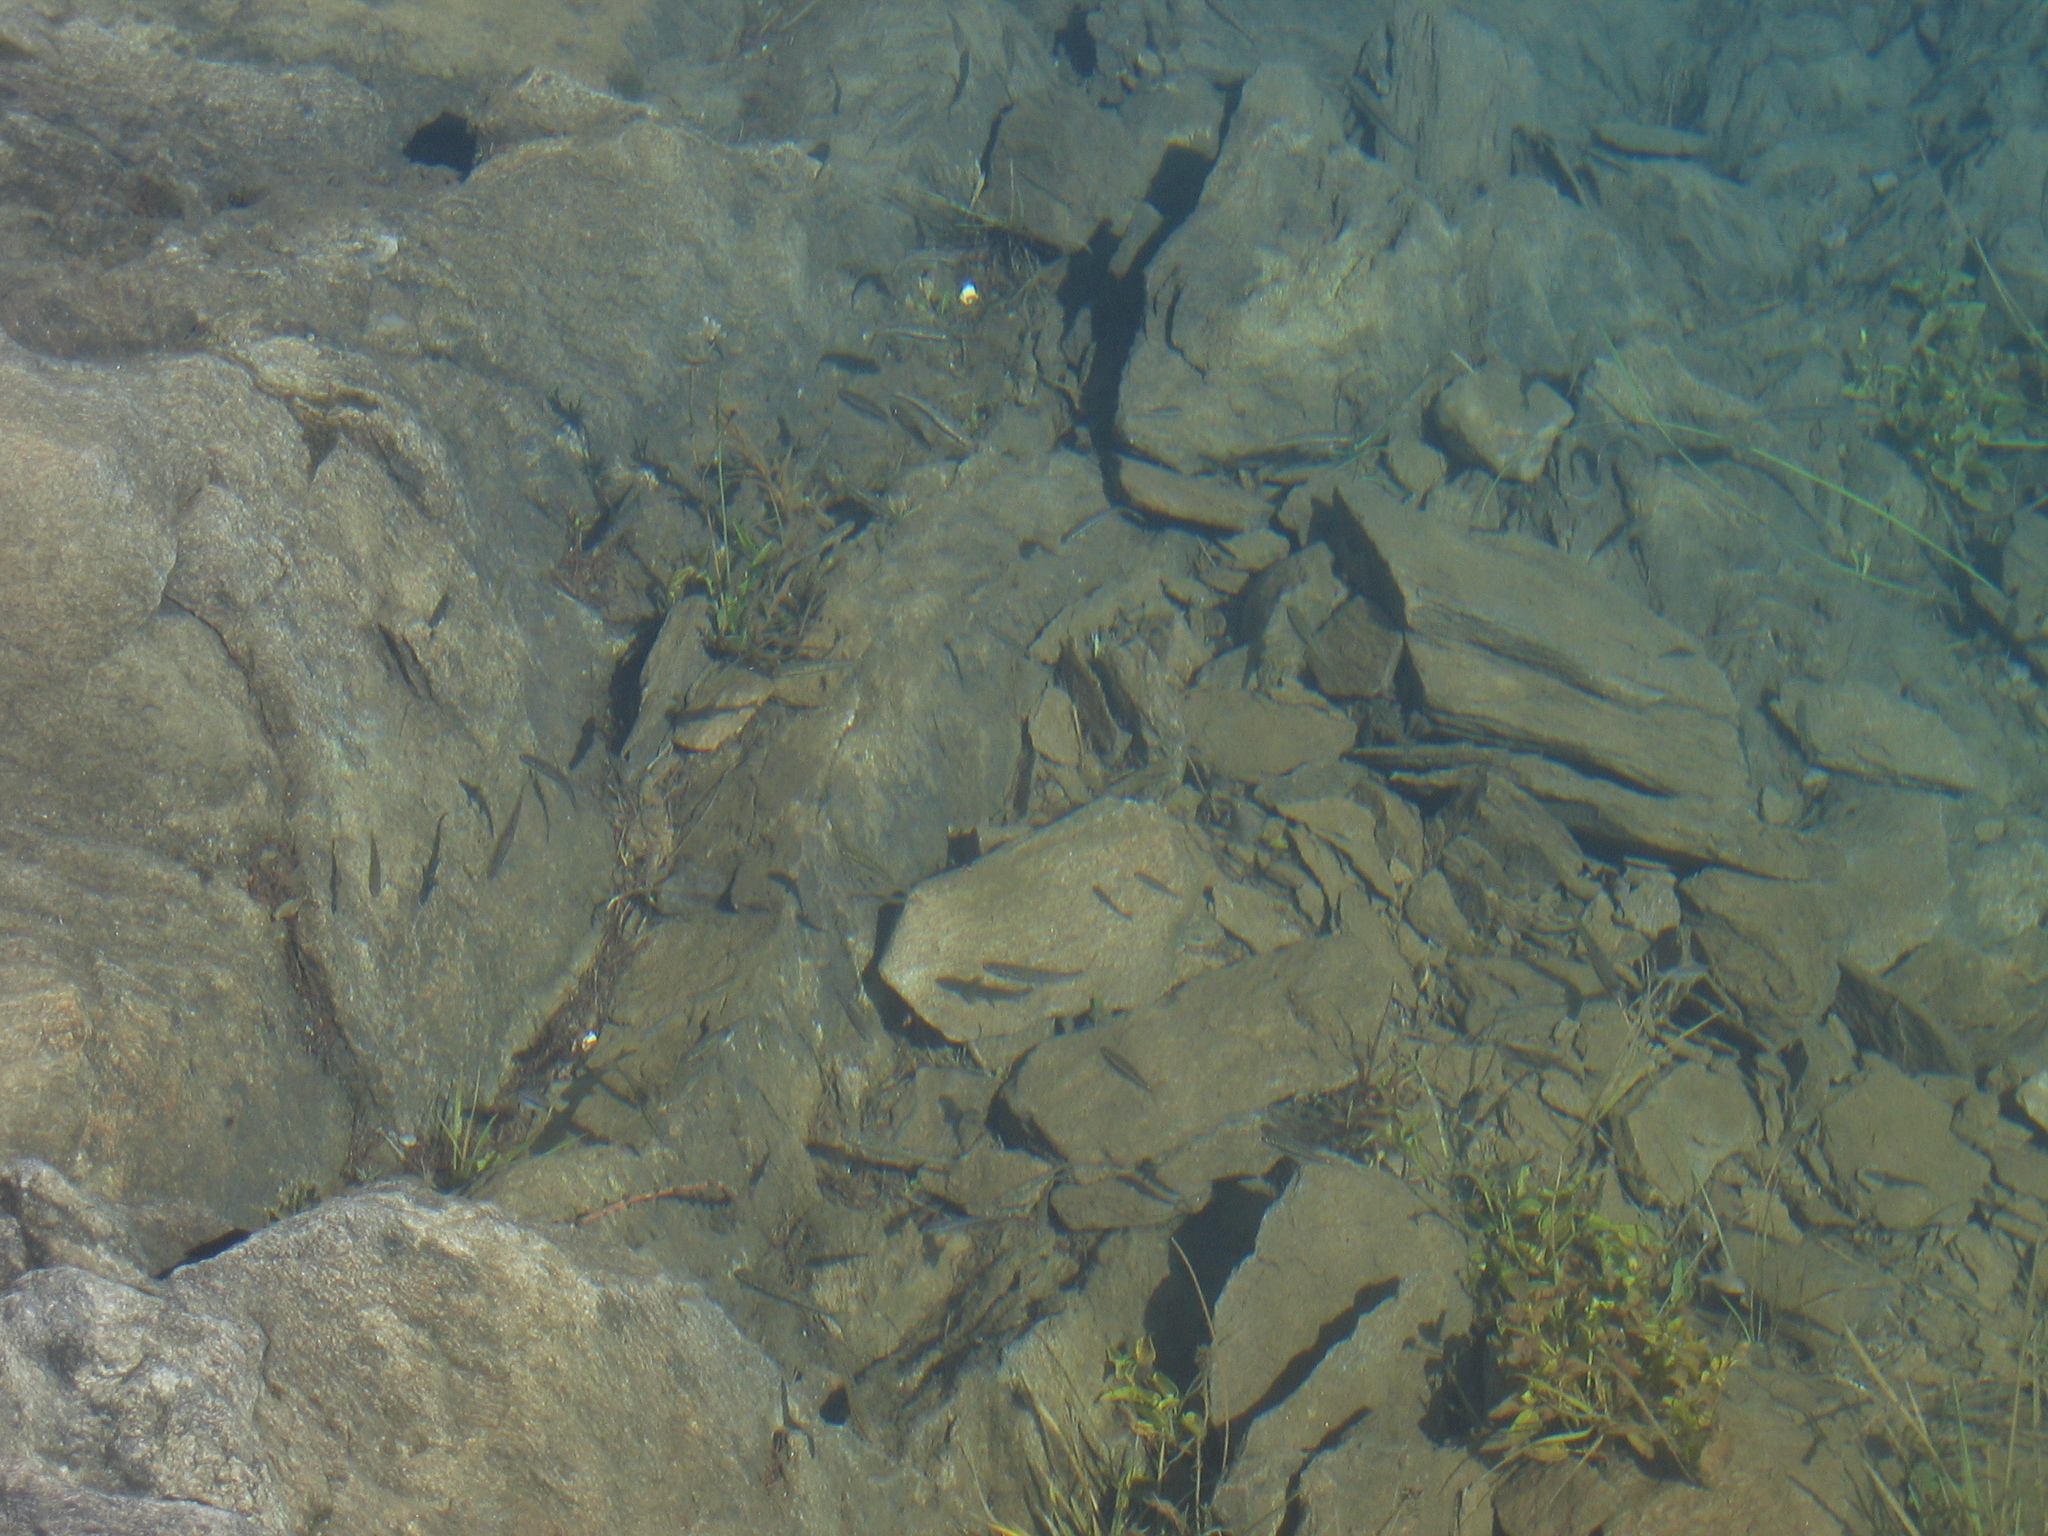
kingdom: Animalia
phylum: Chordata
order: Cypriniformes
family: Cyprinidae
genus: Phoxinus
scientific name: Phoxinus
